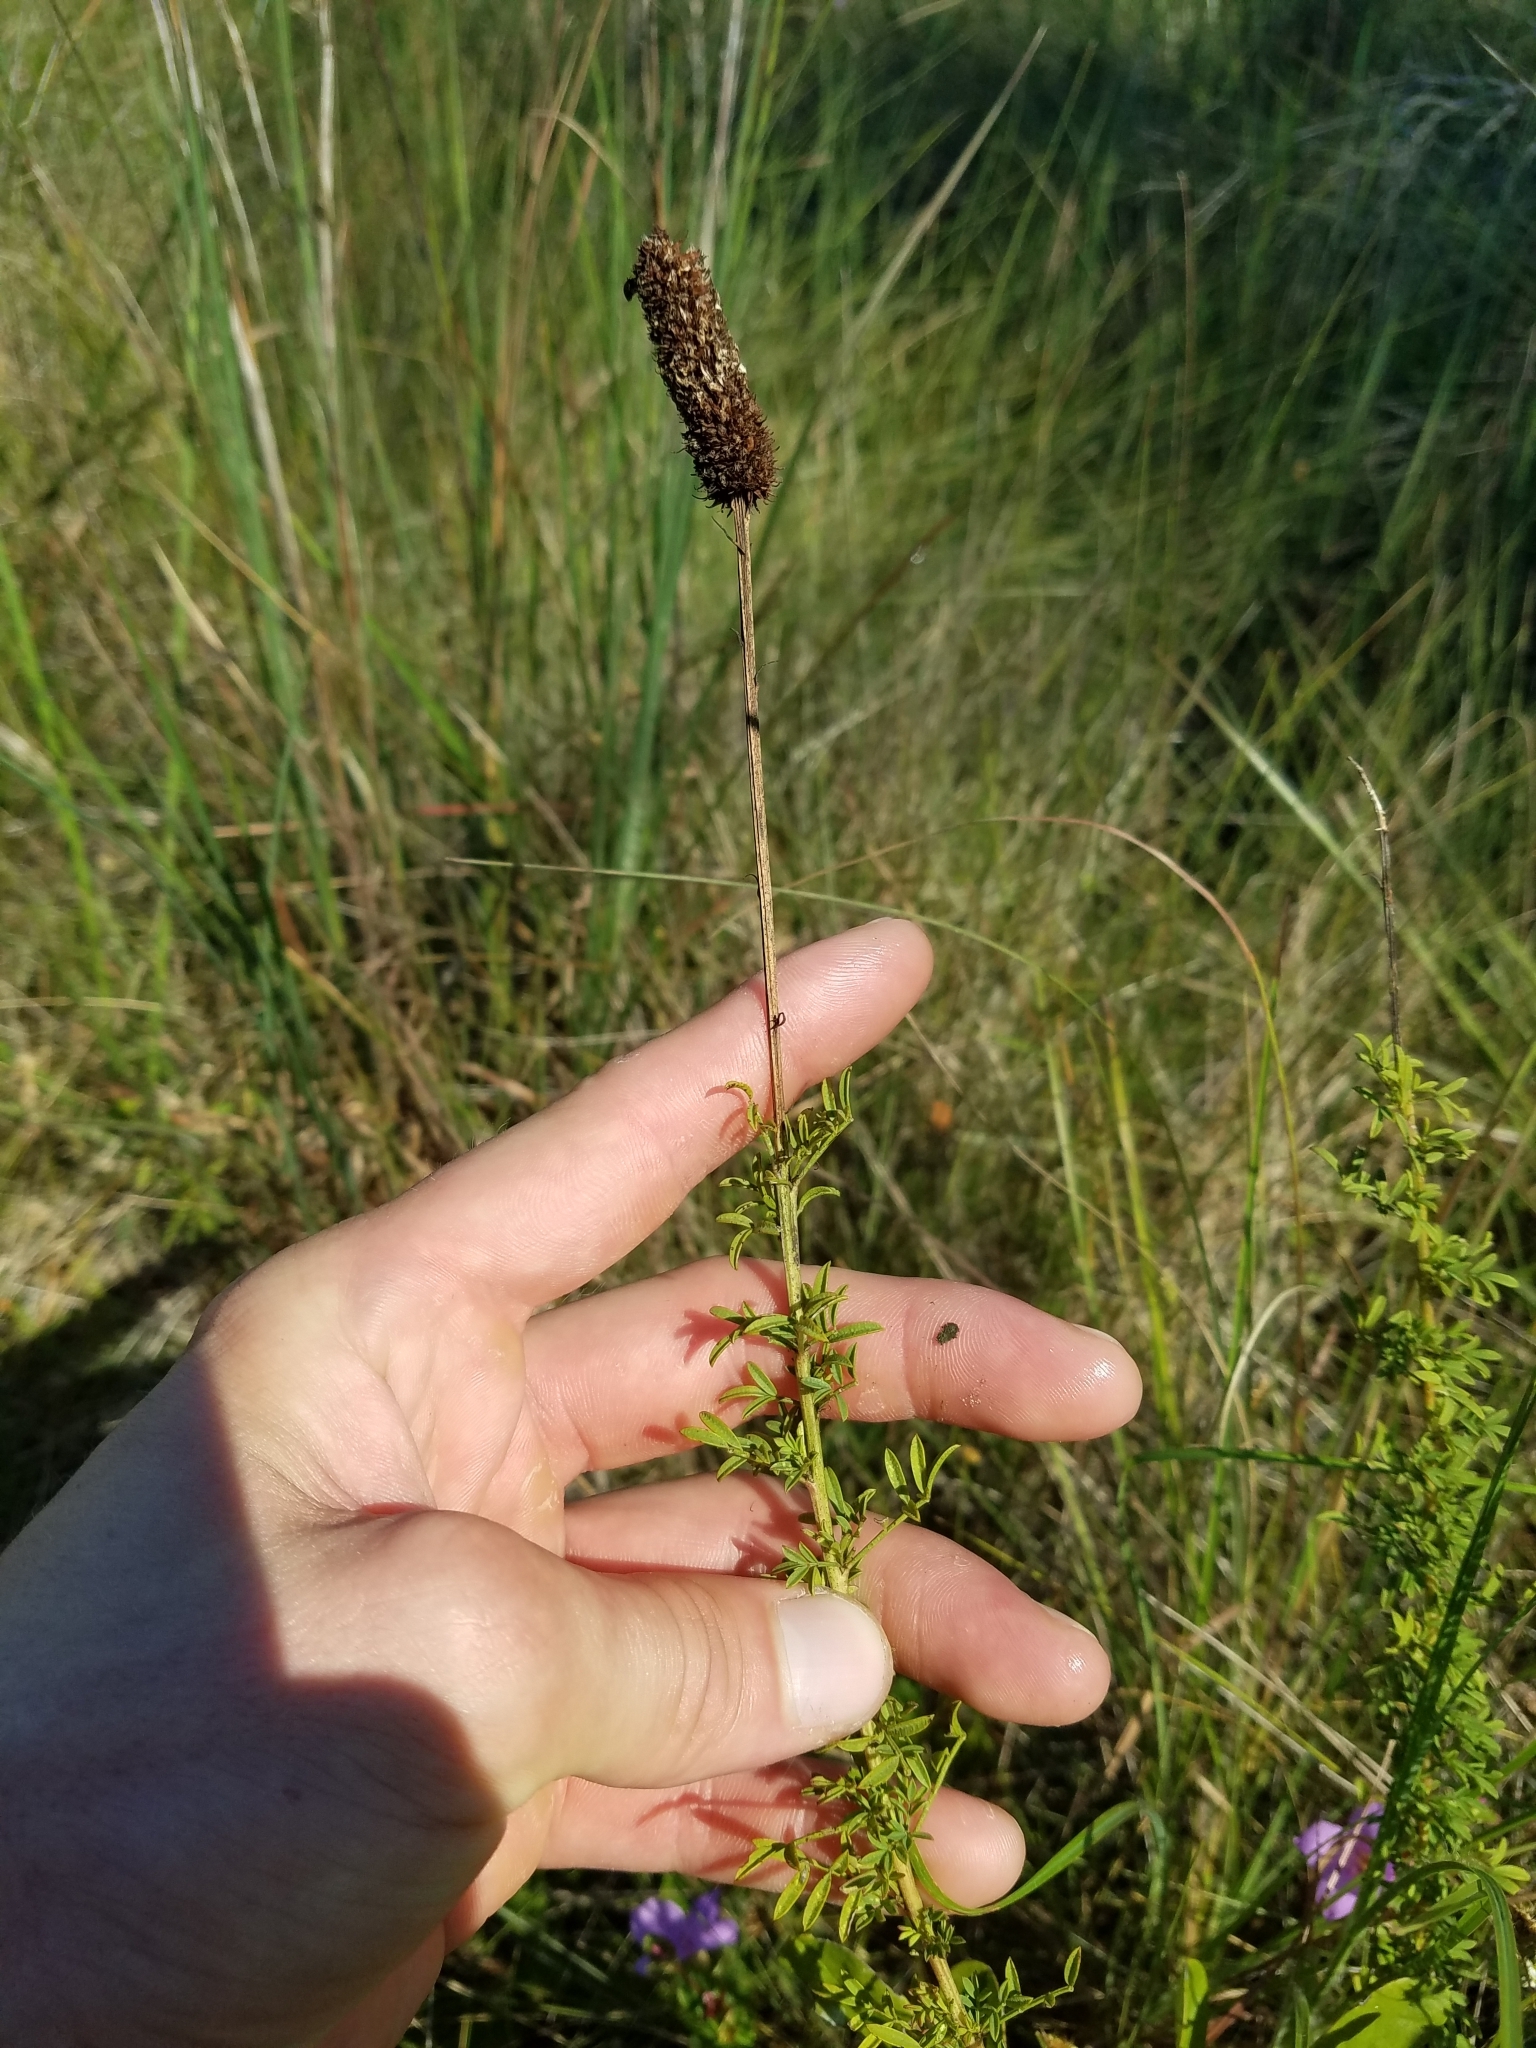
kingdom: Plantae
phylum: Tracheophyta
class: Magnoliopsida
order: Fabales
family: Fabaceae
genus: Dalea
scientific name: Dalea carnea
